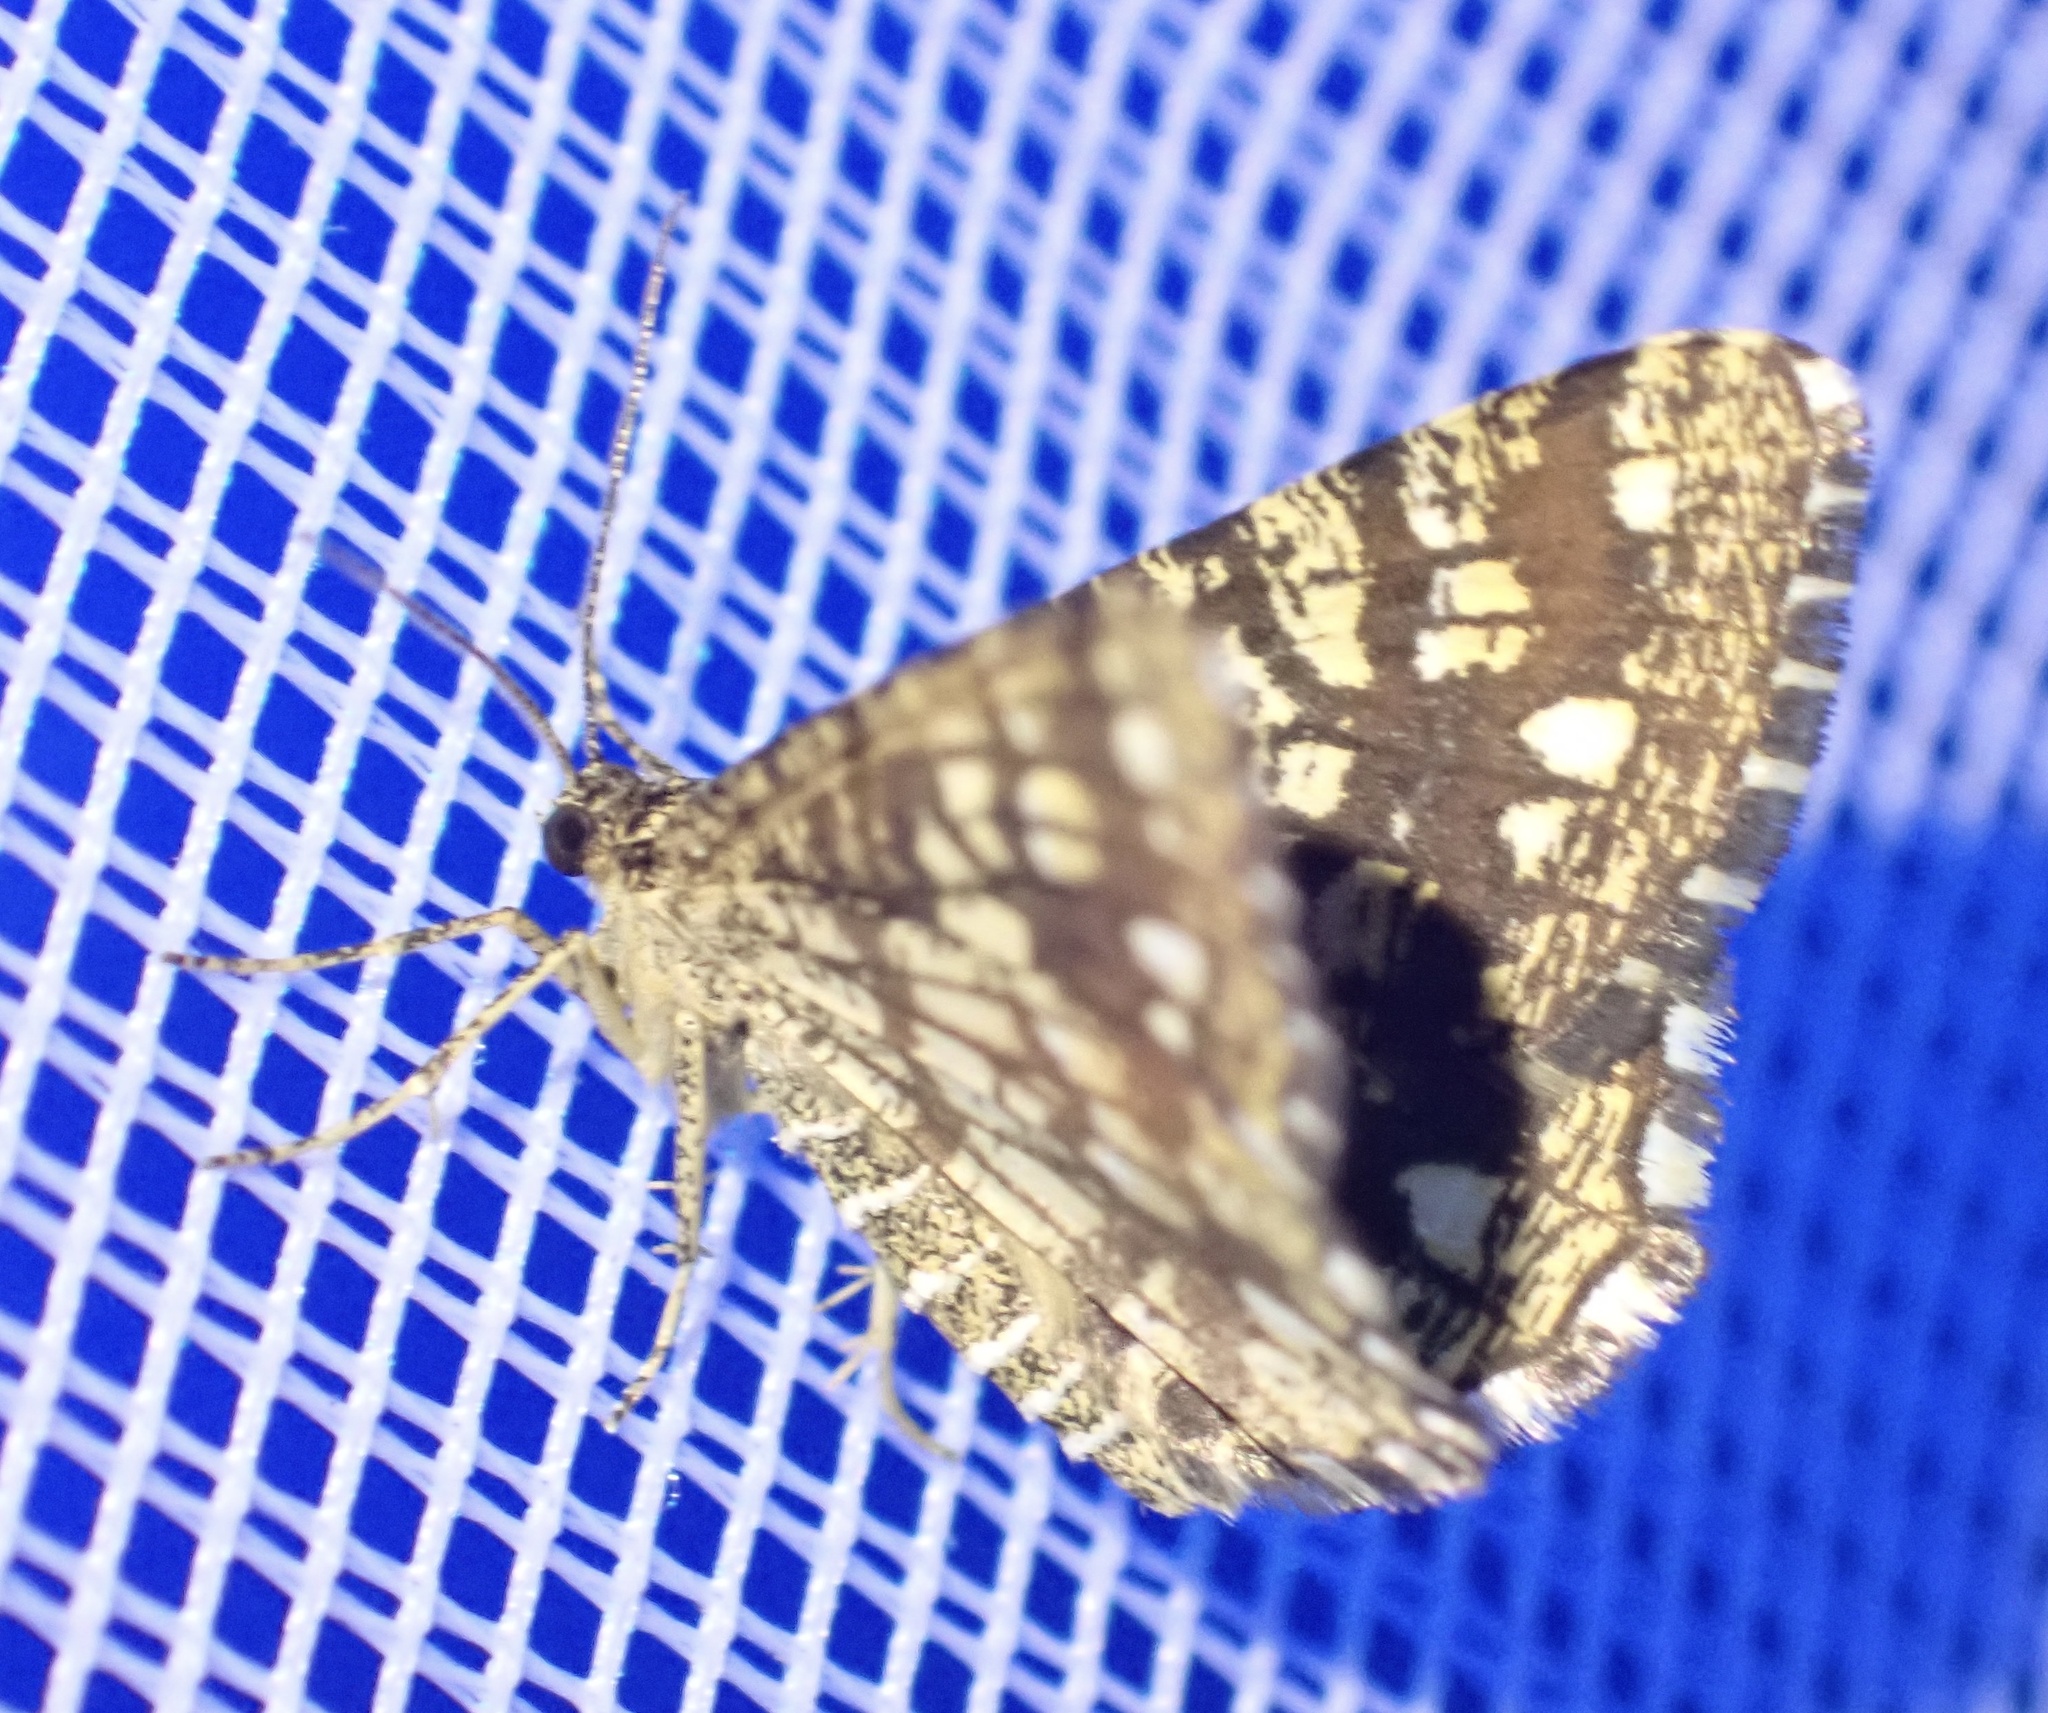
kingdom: Animalia
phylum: Arthropoda
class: Insecta
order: Lepidoptera
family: Geometridae
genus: Chiasmia
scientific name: Chiasmia clathrata
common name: Latticed heath
